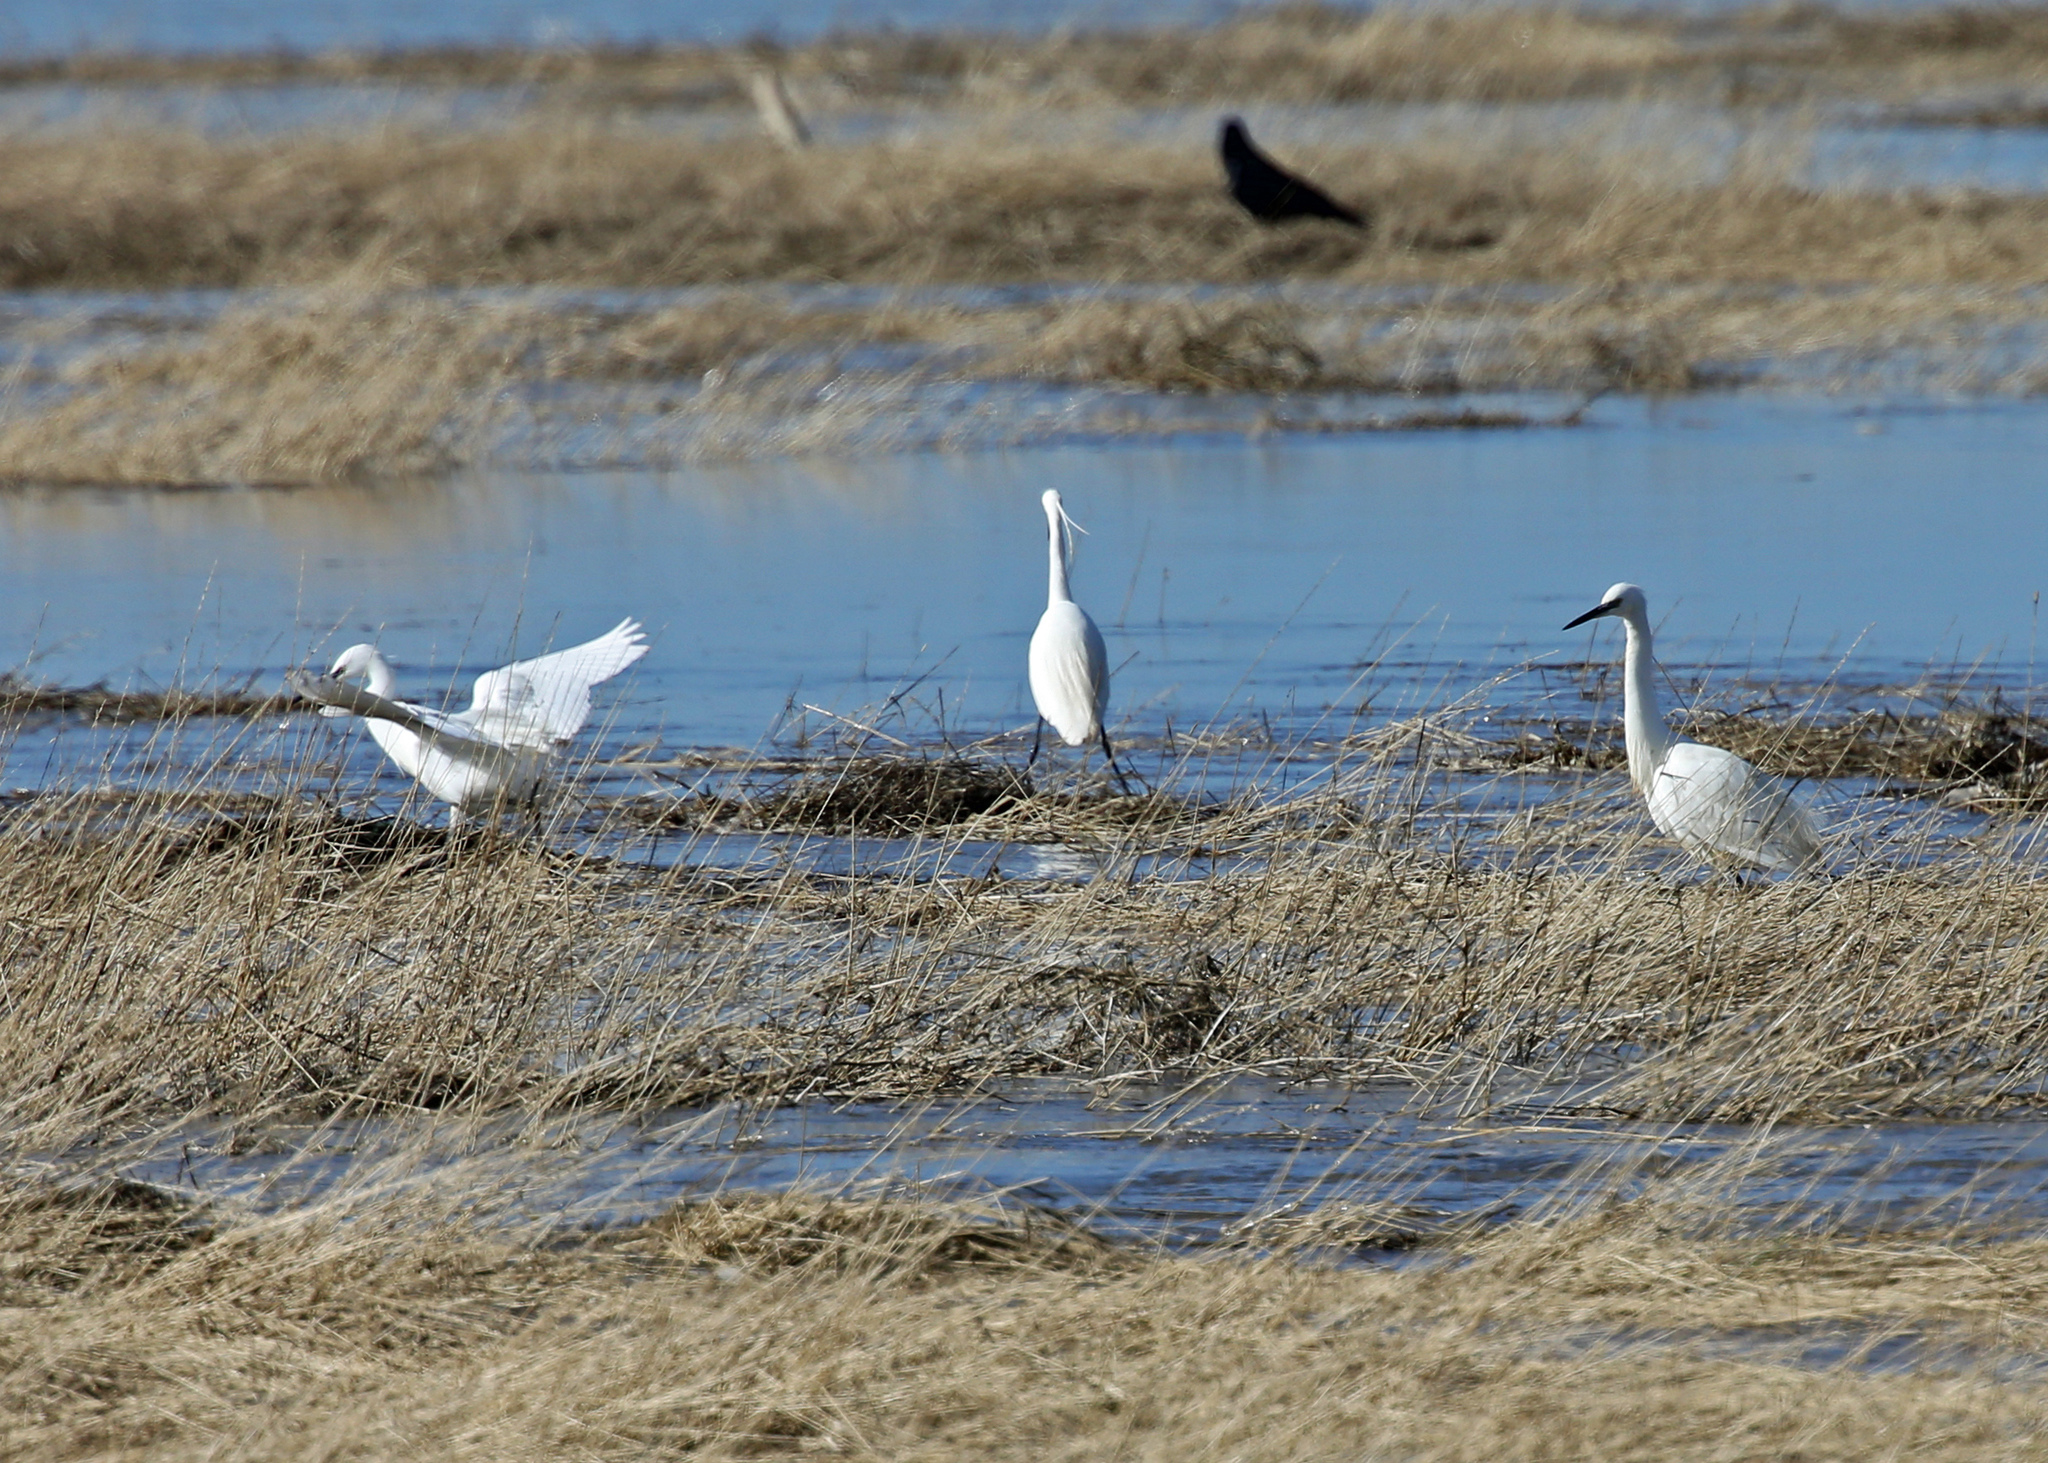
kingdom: Animalia
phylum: Chordata
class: Aves
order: Pelecaniformes
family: Ardeidae
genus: Egretta
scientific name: Egretta garzetta
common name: Little egret
